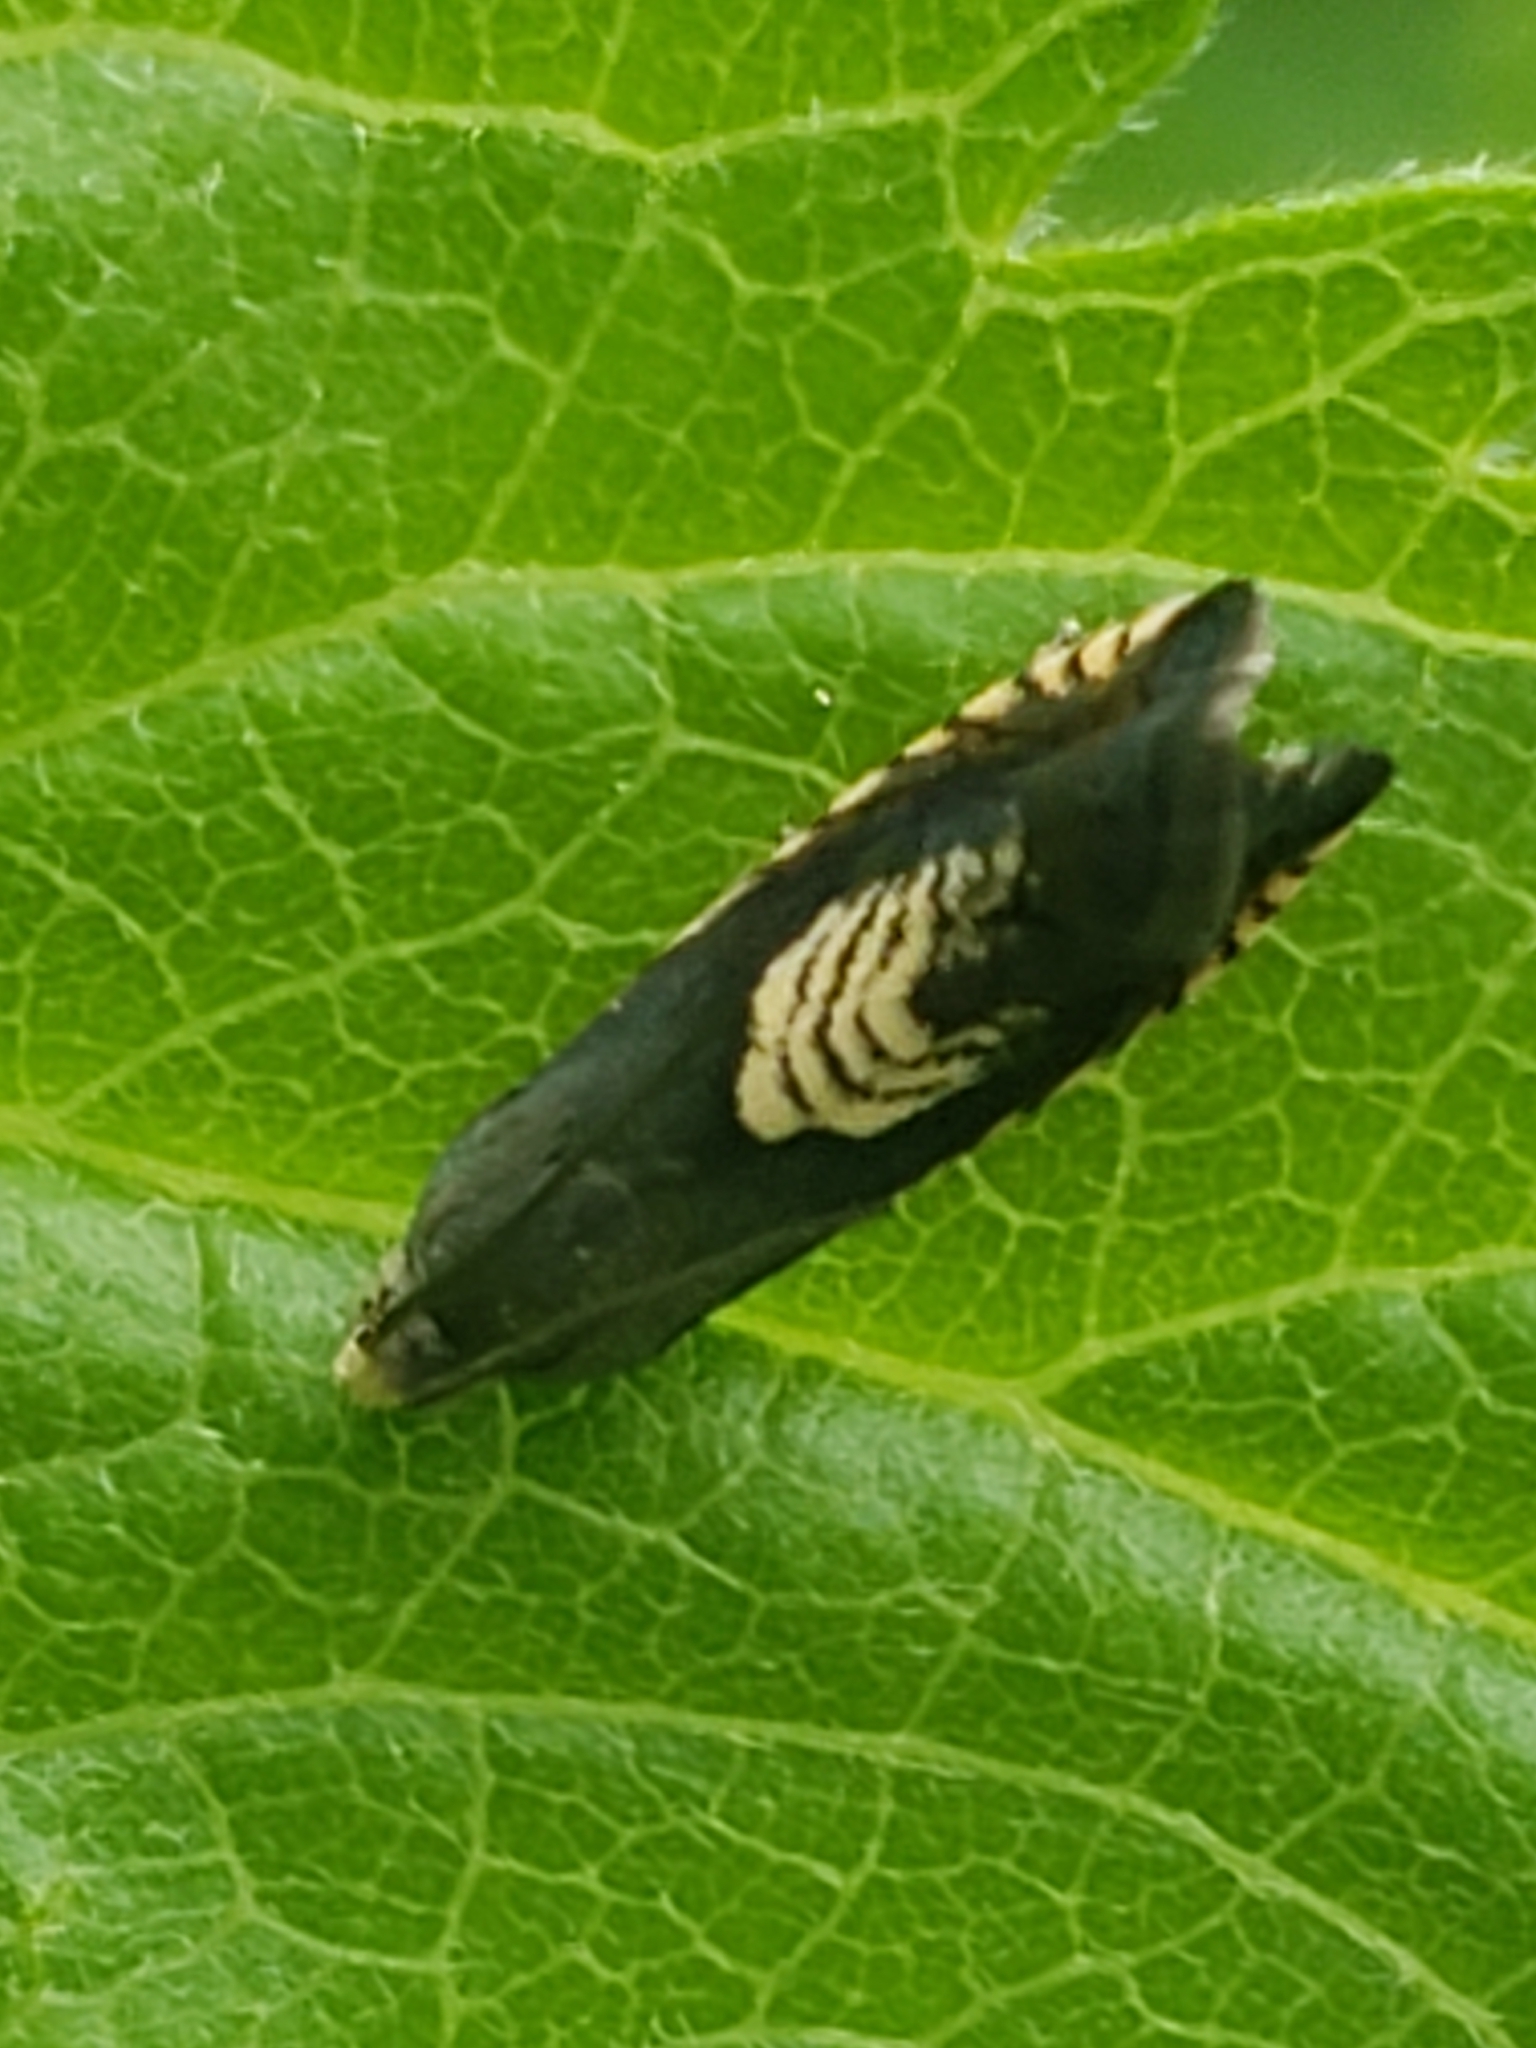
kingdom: Animalia
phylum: Arthropoda
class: Insecta
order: Lepidoptera
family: Tortricidae
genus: Grapholita
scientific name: Grapholita tristrigana
